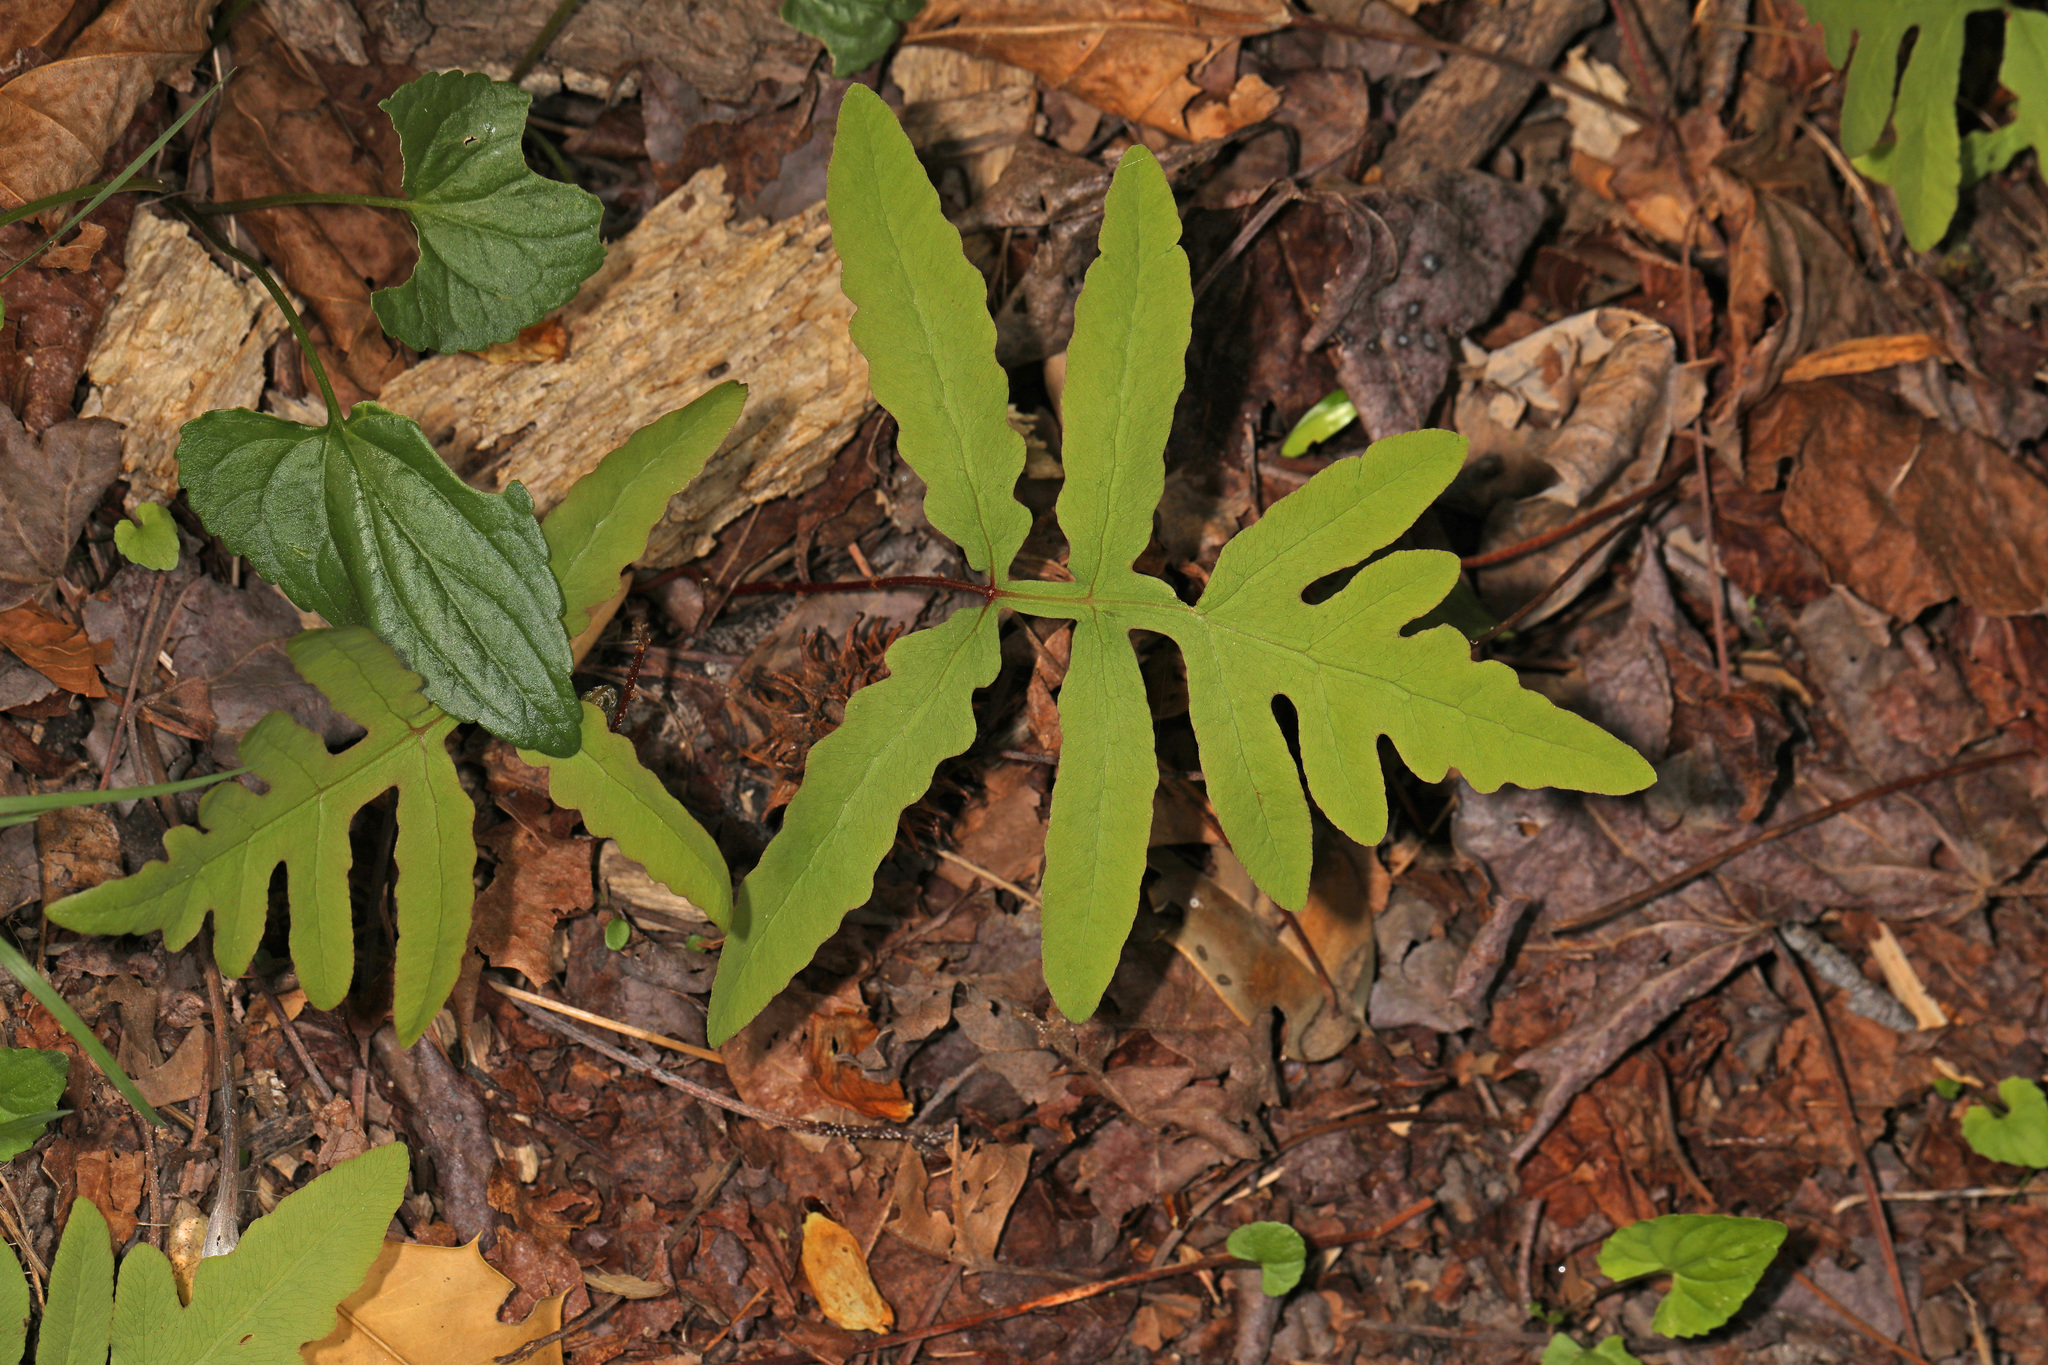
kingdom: Plantae
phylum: Tracheophyta
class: Polypodiopsida
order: Polypodiales
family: Onocleaceae
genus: Onoclea
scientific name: Onoclea sensibilis
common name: Sensitive fern
